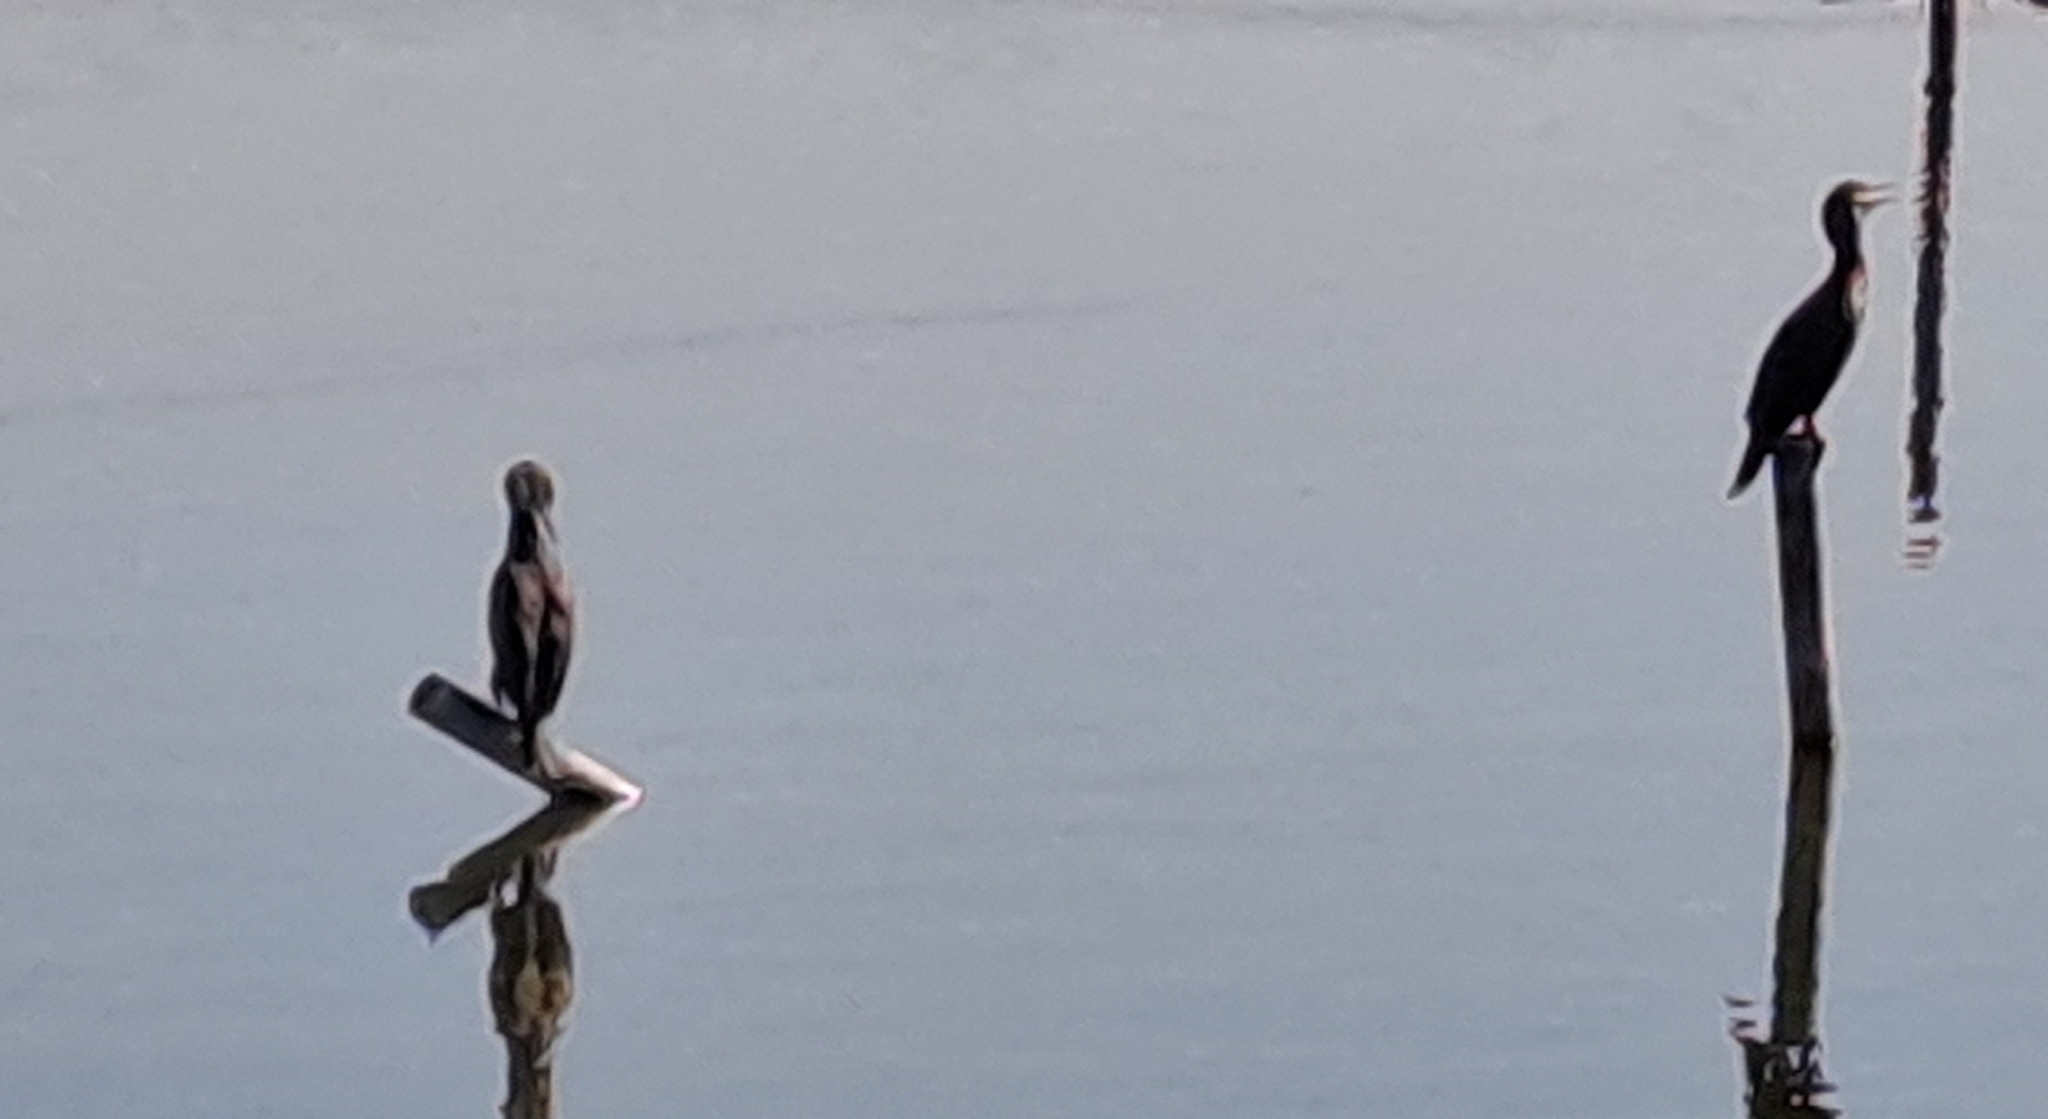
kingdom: Animalia
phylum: Chordata
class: Aves
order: Suliformes
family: Phalacrocoracidae
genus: Phalacrocorax
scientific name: Phalacrocorax carbo
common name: Great cormorant
